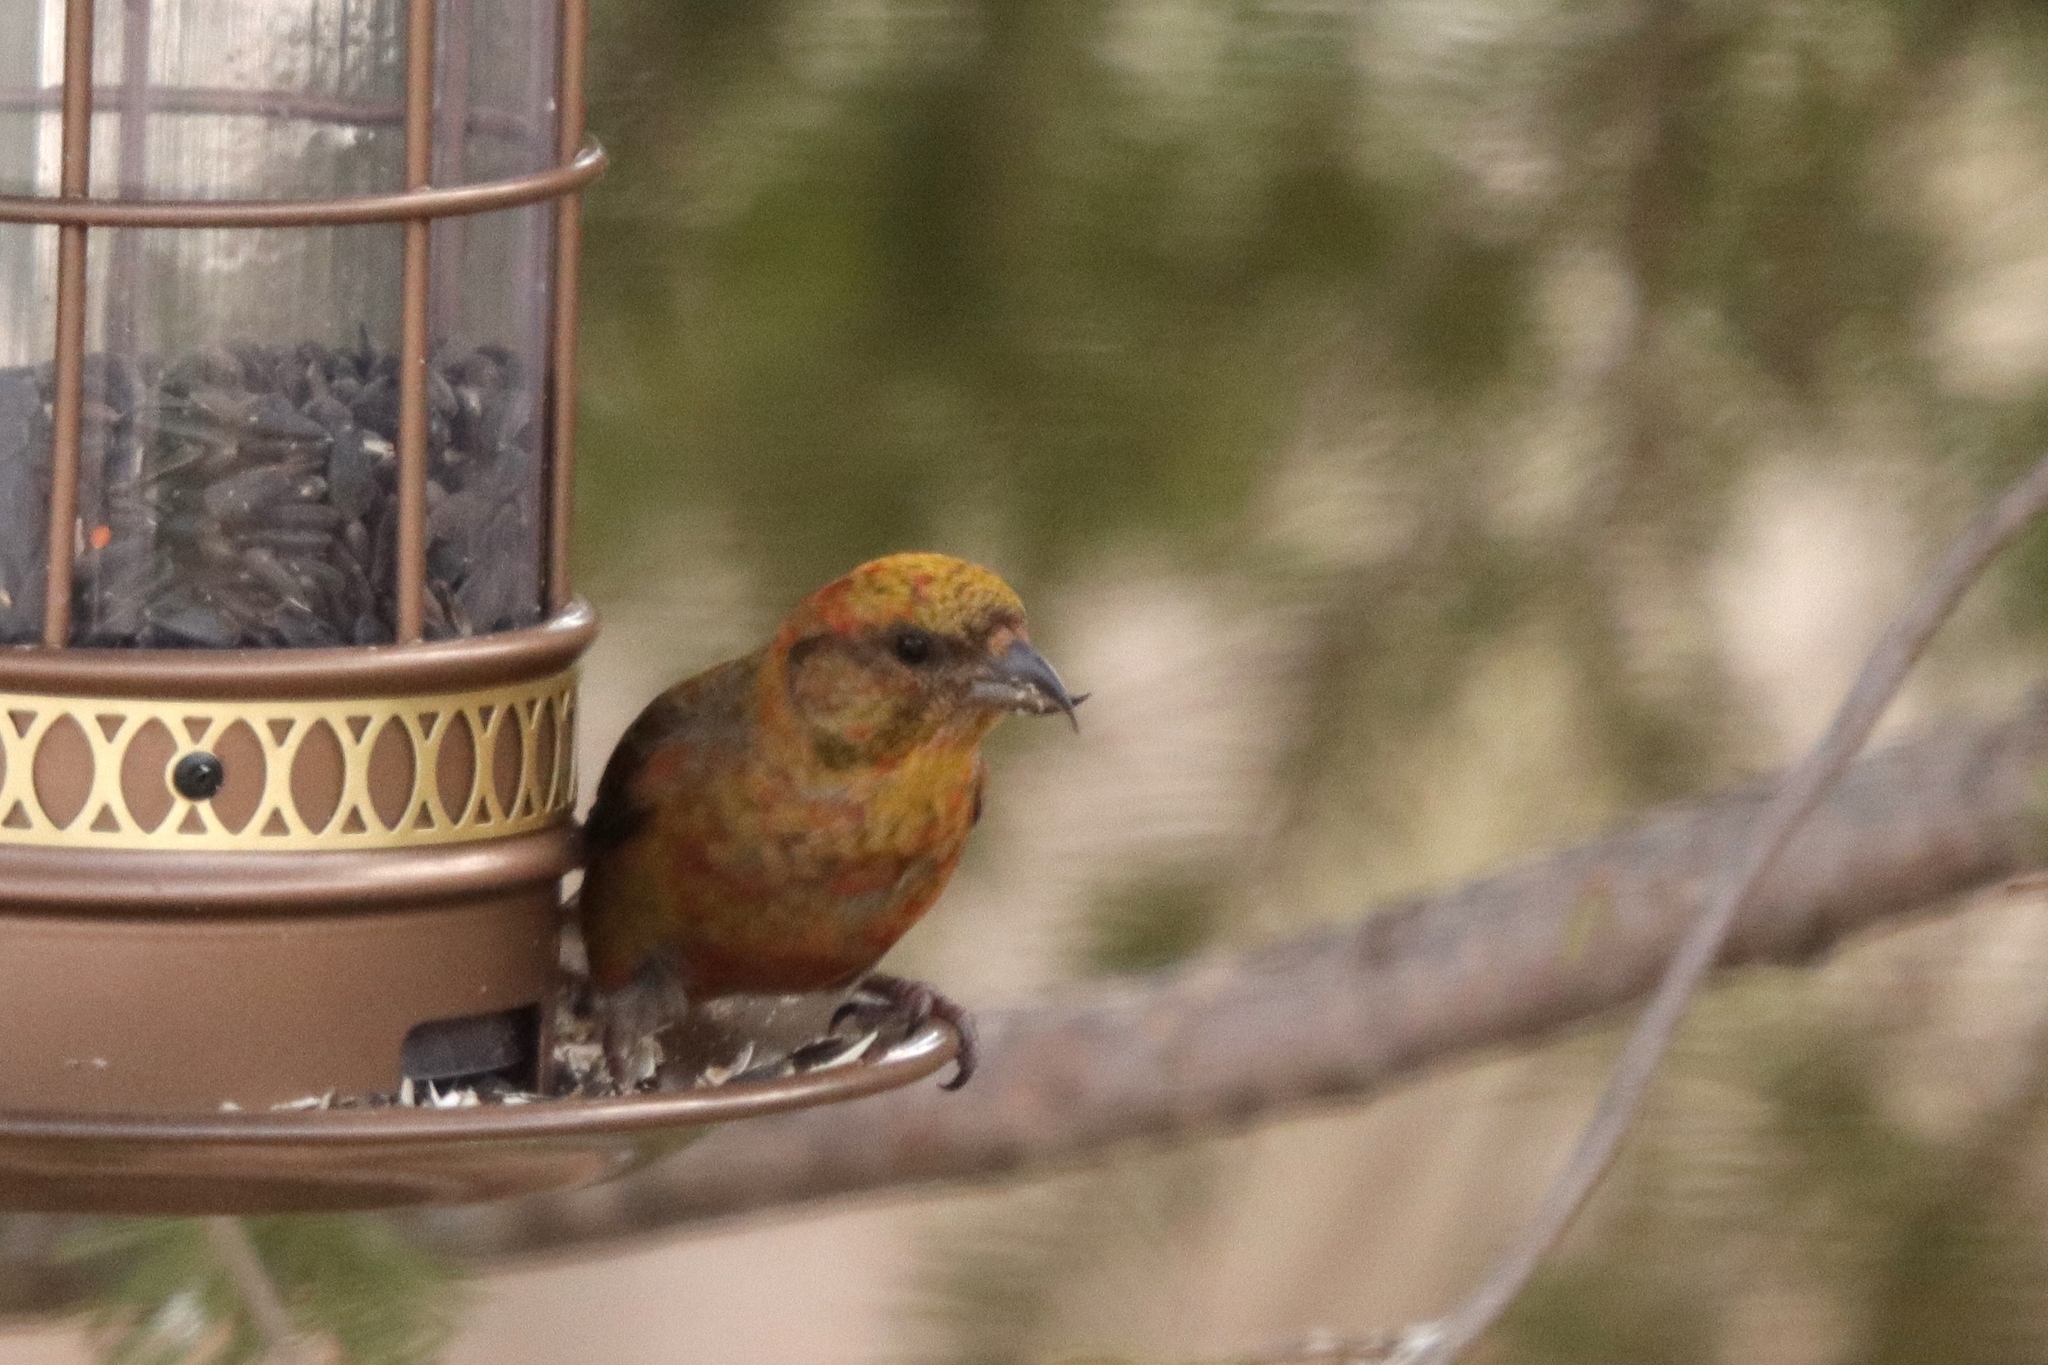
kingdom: Animalia
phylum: Chordata
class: Aves
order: Passeriformes
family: Fringillidae
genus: Loxia
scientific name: Loxia curvirostra
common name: Red crossbill
